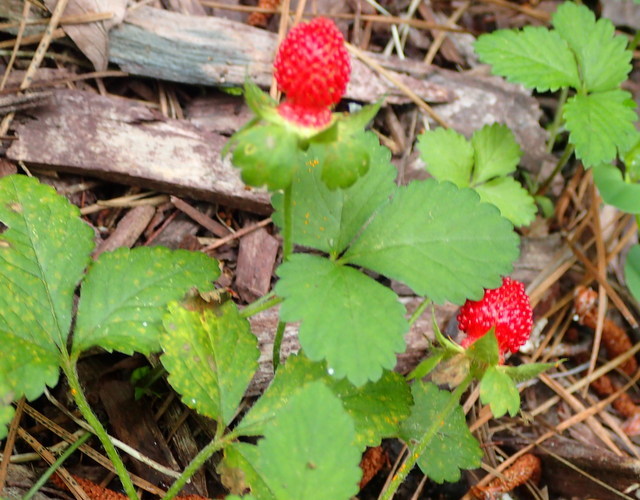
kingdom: Plantae
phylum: Tracheophyta
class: Magnoliopsida
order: Rosales
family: Rosaceae
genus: Potentilla
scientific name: Potentilla indica
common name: Yellow-flowered strawberry
